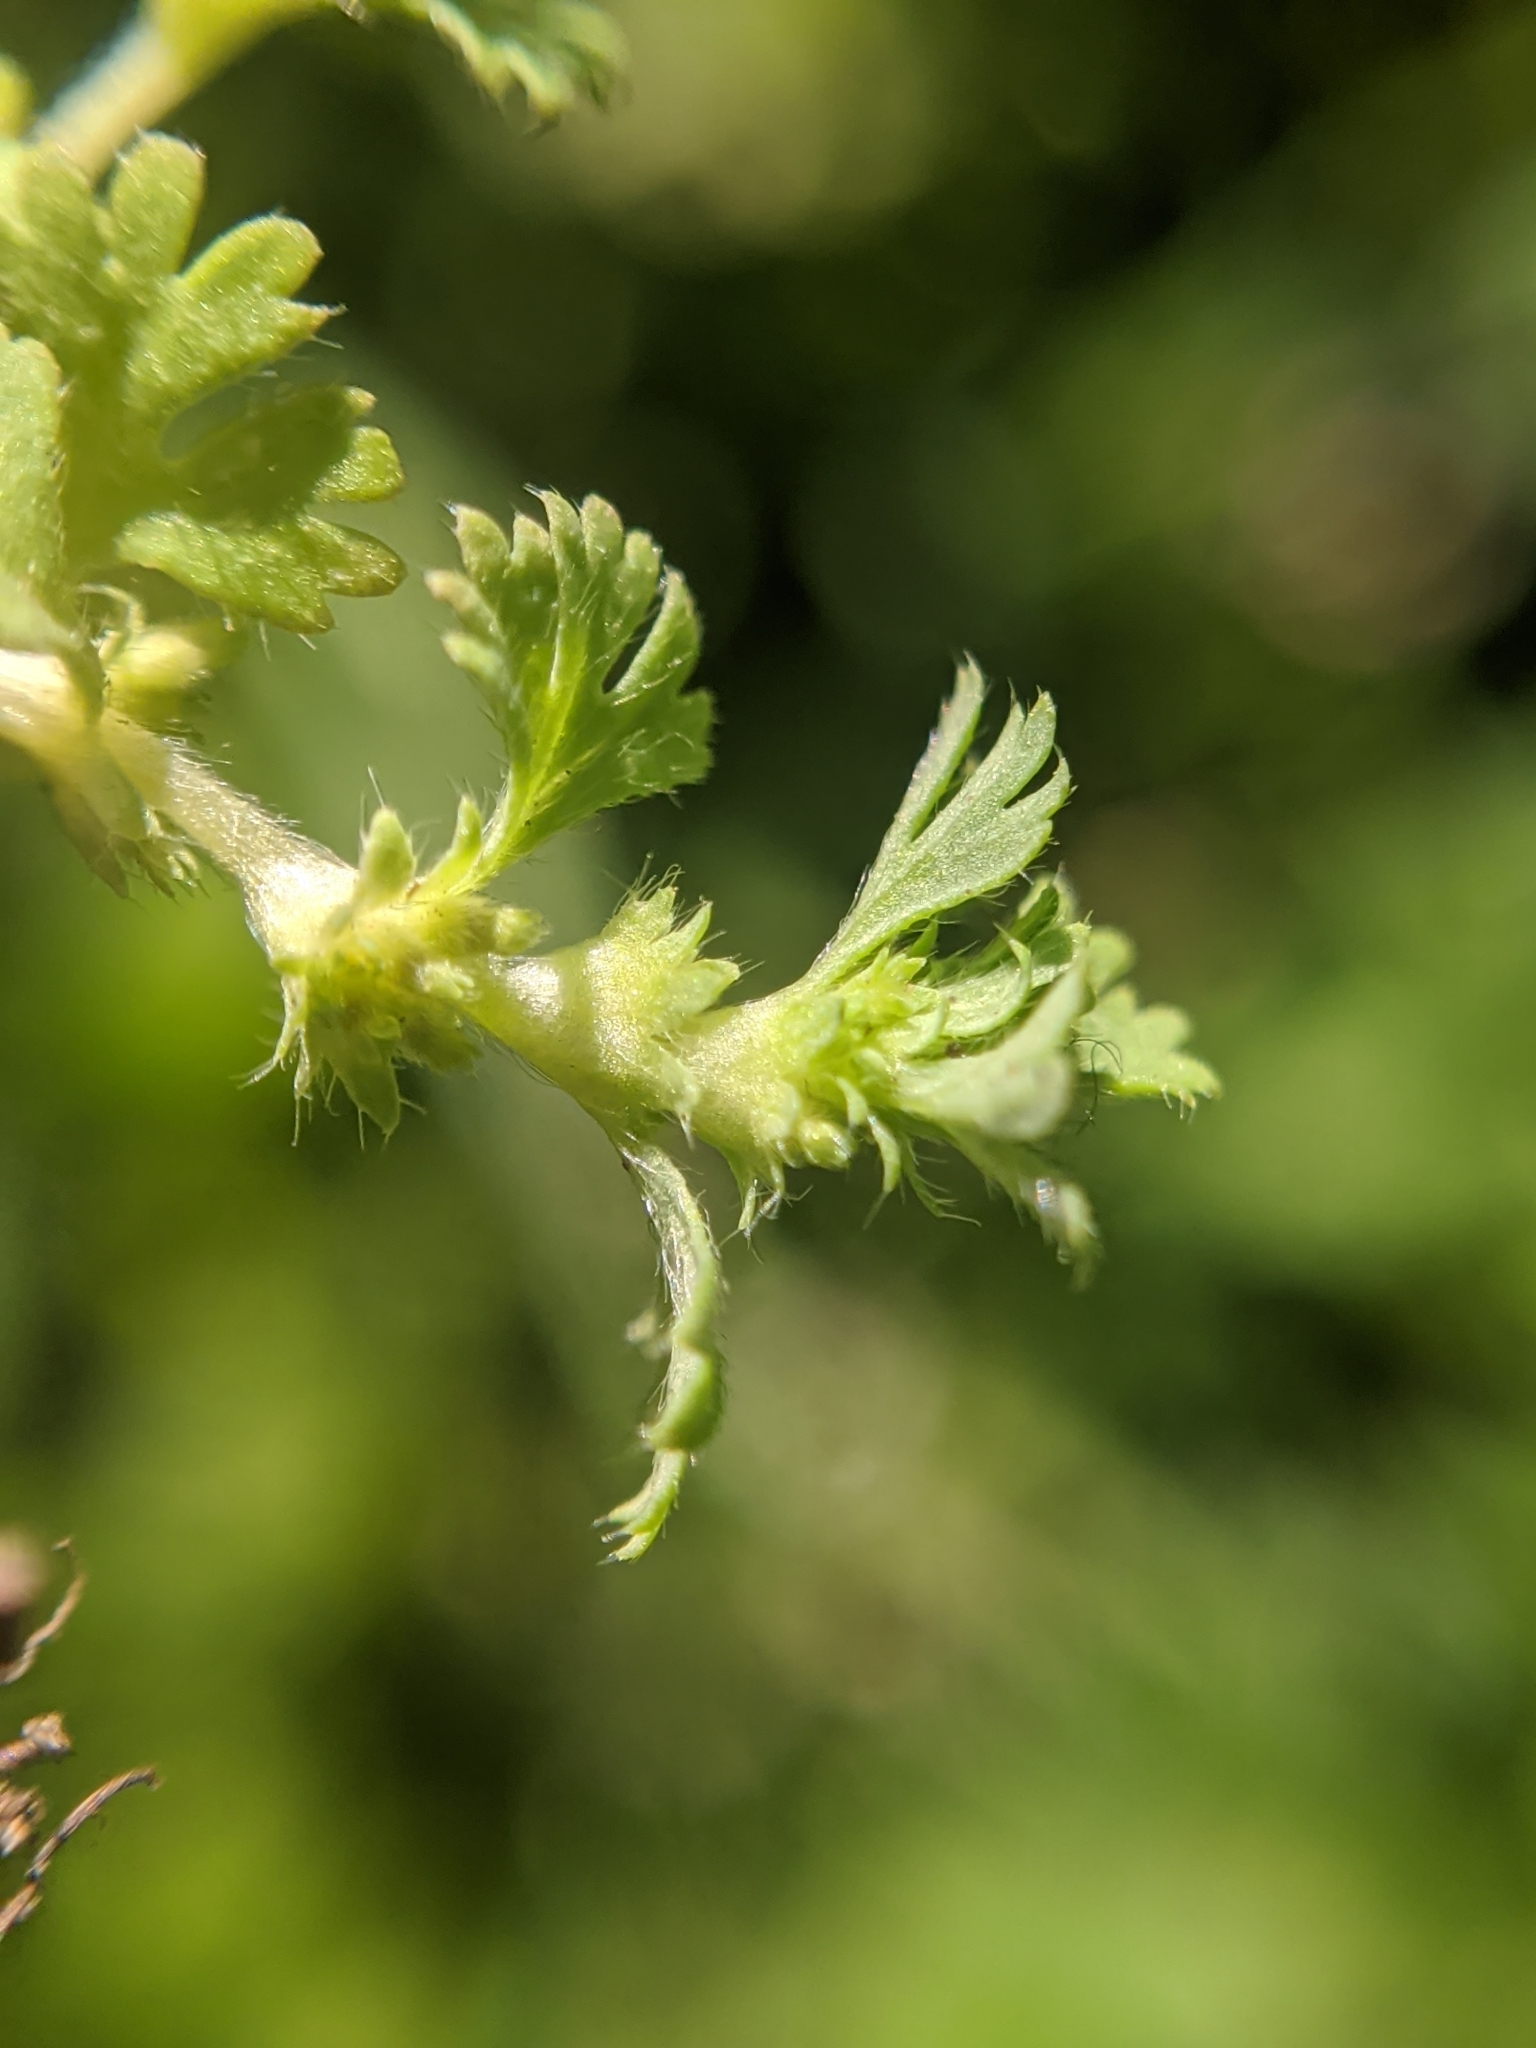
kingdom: Plantae
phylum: Tracheophyta
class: Magnoliopsida
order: Rosales
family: Rosaceae
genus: Aphanes
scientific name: Aphanes arvensis
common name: Parsley-piert
